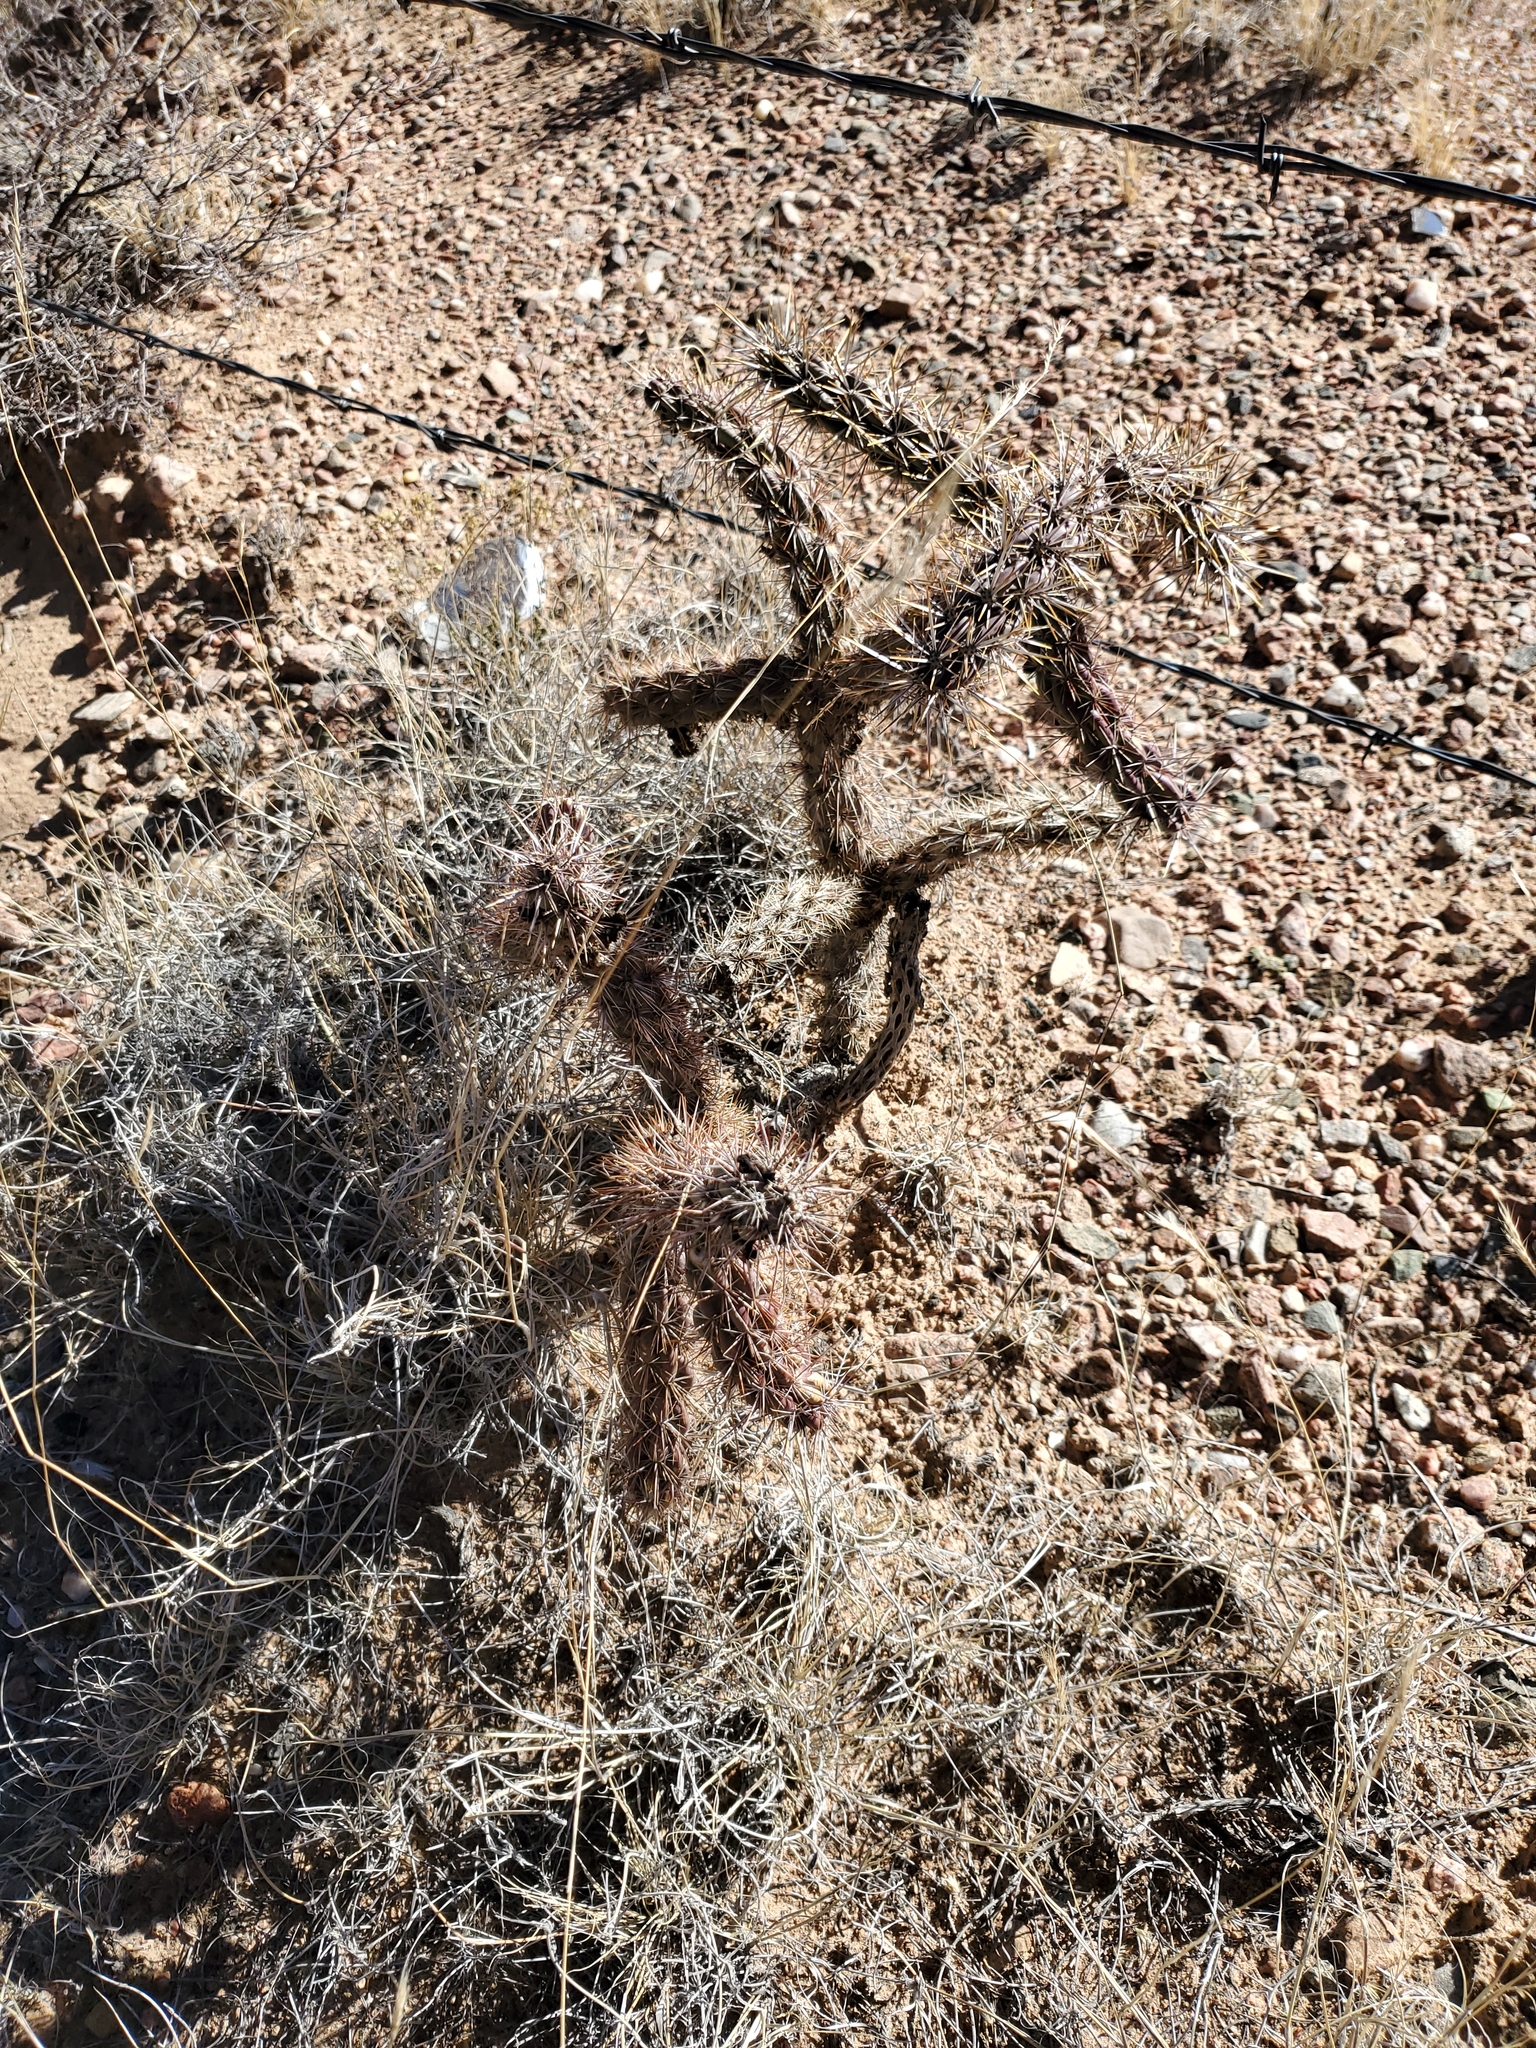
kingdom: Plantae
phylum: Tracheophyta
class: Magnoliopsida
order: Caryophyllales
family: Cactaceae
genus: Cylindropuntia
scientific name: Cylindropuntia imbricata
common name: Candelabrum cactus
